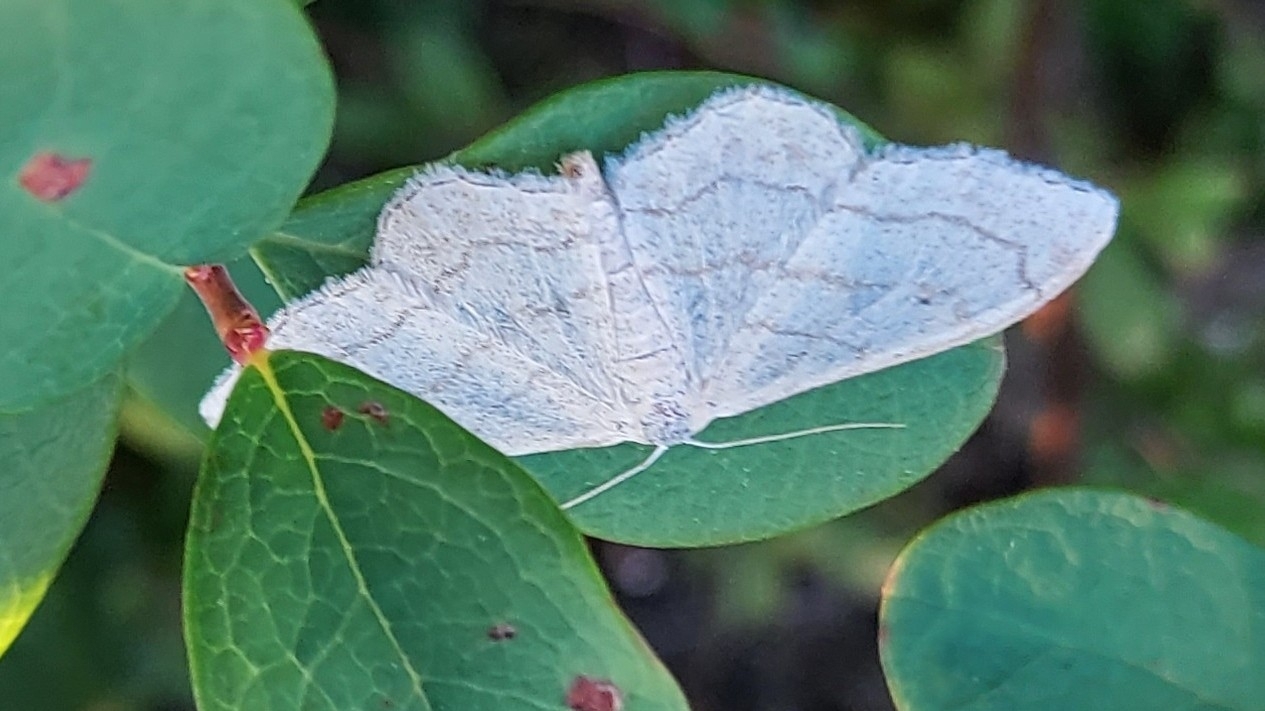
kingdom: Animalia
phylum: Arthropoda
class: Insecta
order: Lepidoptera
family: Geometridae
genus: Idaea
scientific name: Idaea aversata
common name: Riband wave
